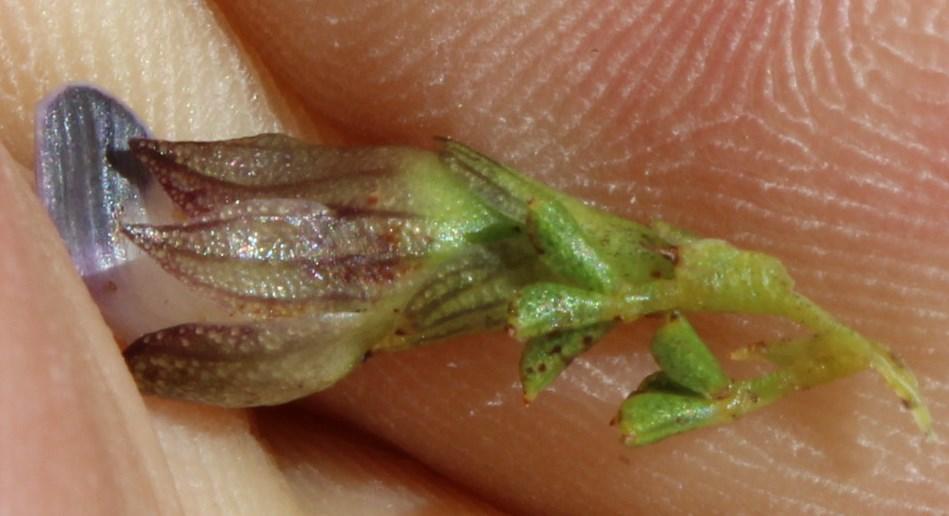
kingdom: Plantae
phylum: Tracheophyta
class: Magnoliopsida
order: Fabales
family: Fabaceae
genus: Psoralea
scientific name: Psoralea aculeata
